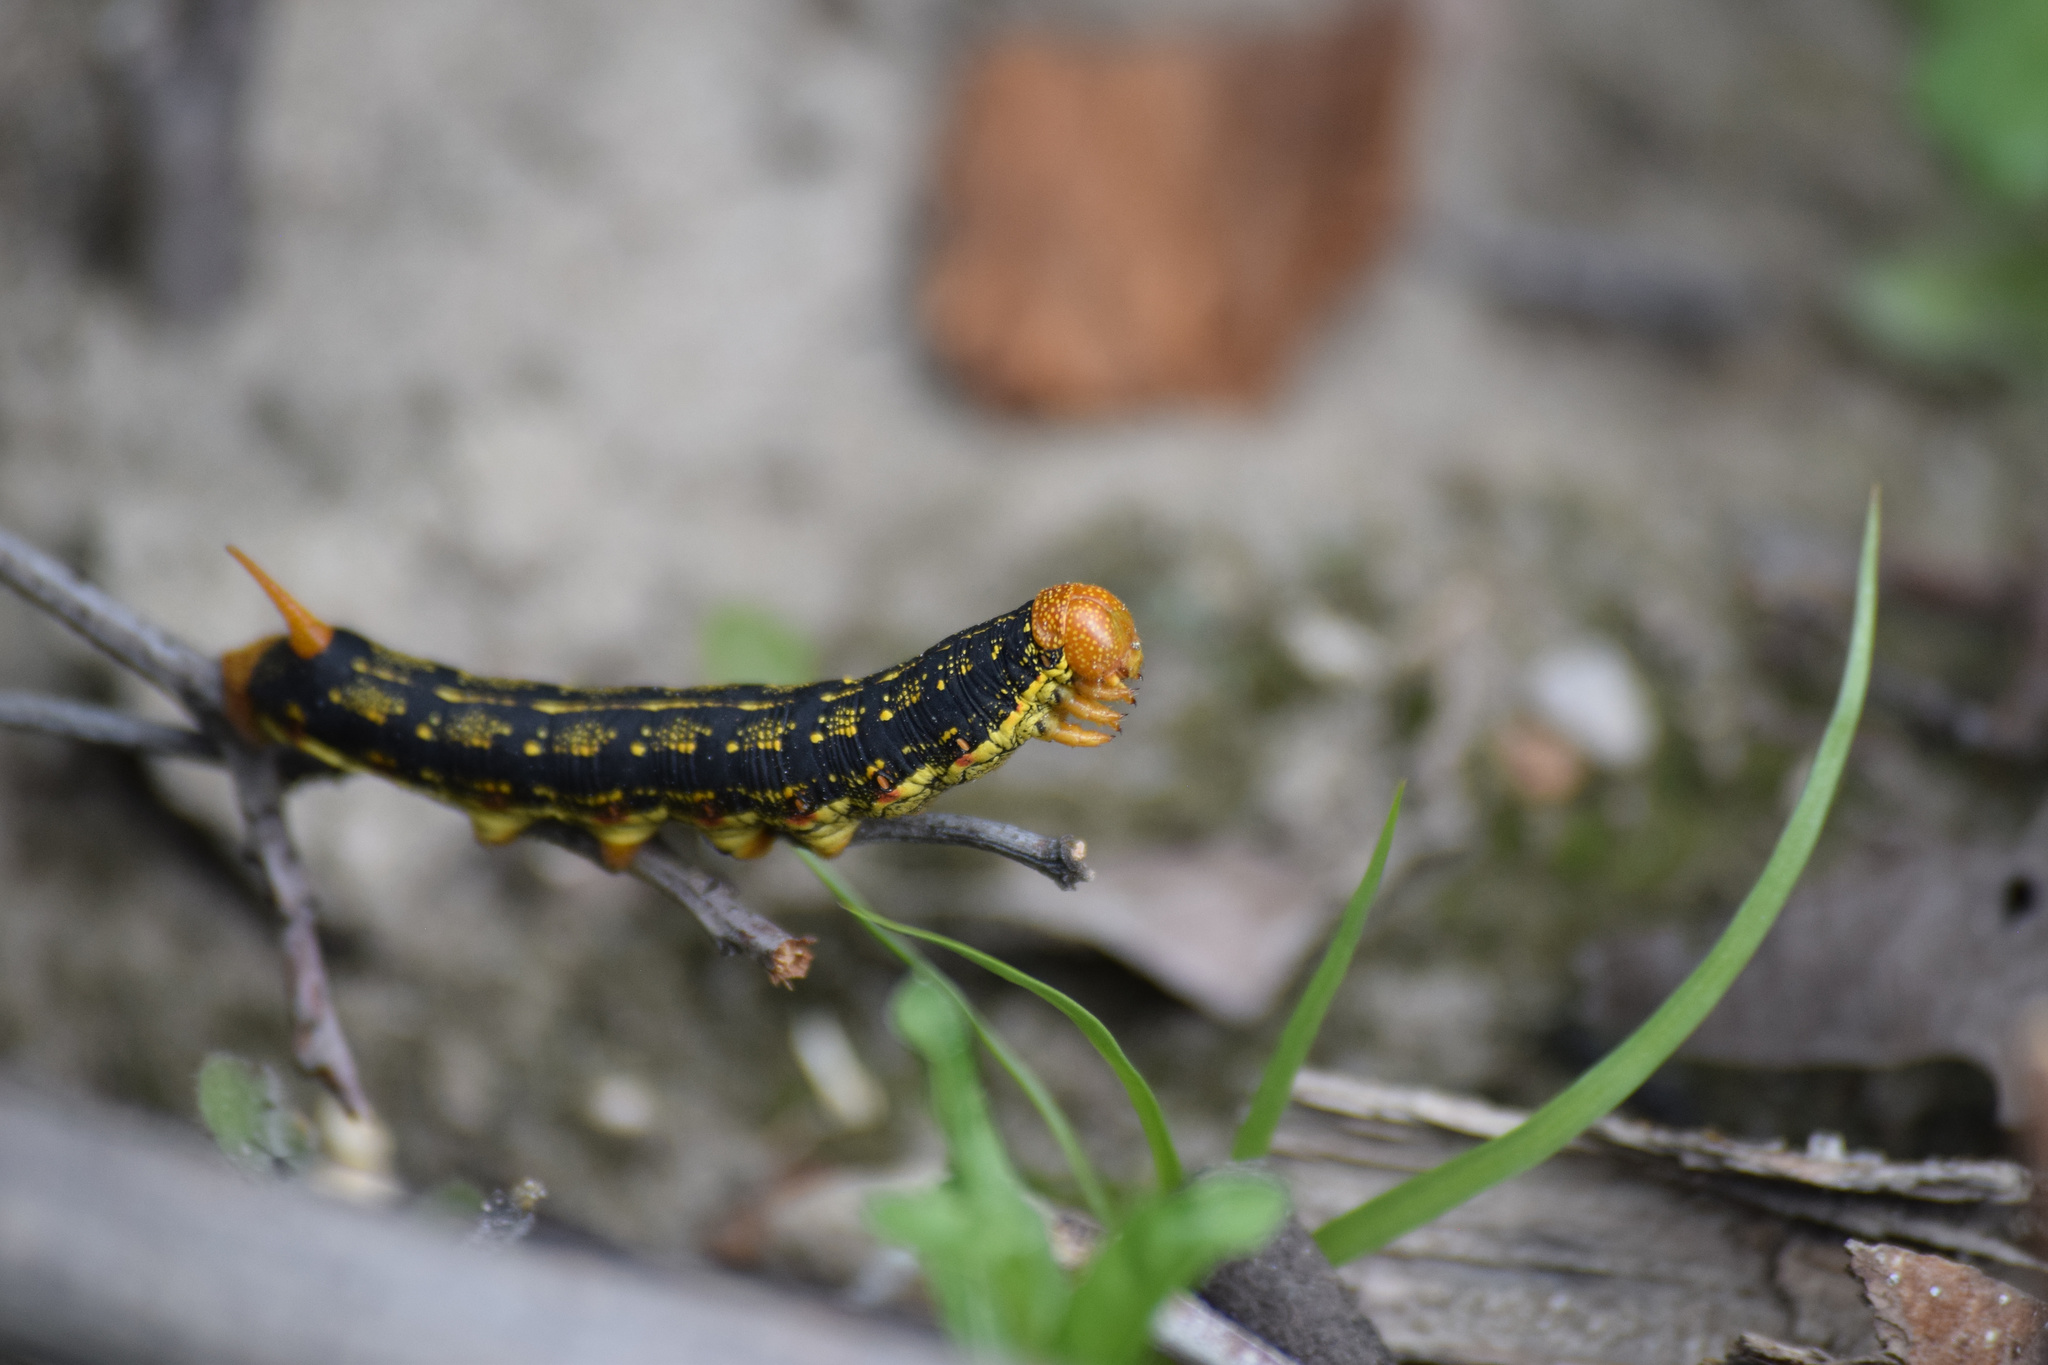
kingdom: Animalia
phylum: Arthropoda
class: Insecta
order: Lepidoptera
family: Sphingidae
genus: Hyles
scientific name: Hyles lineata
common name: White-lined sphinx
